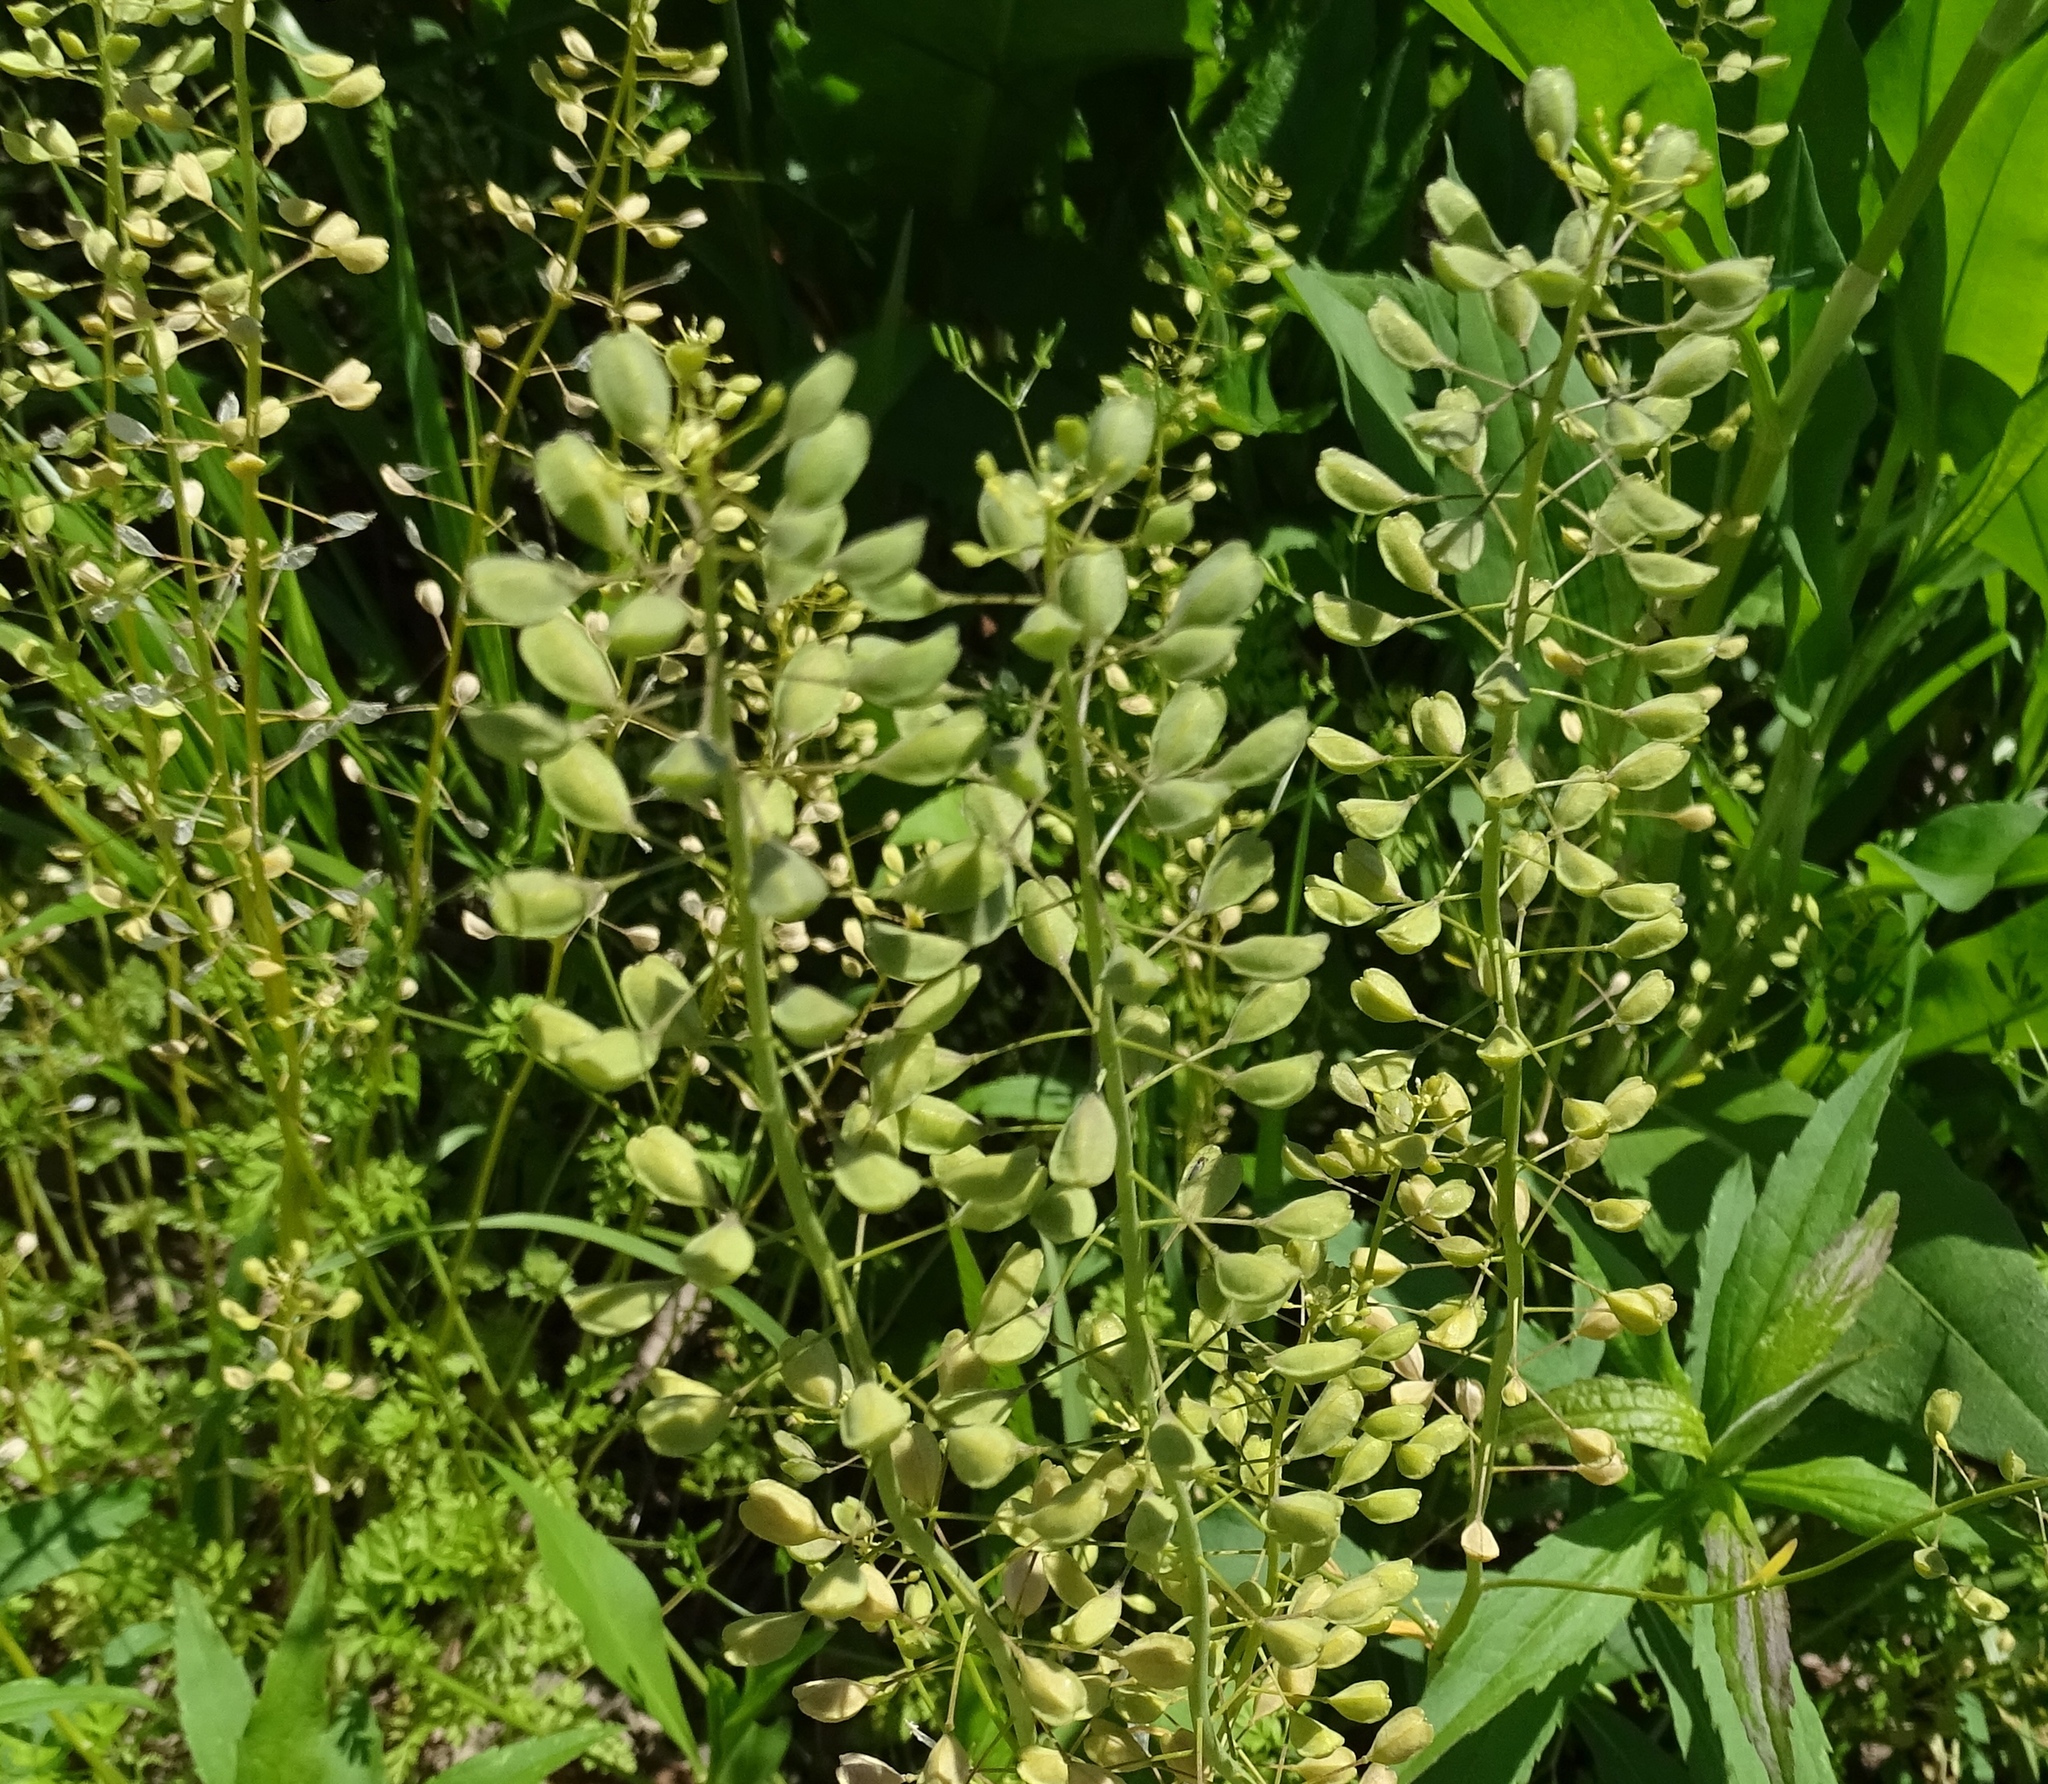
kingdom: Plantae
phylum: Tracheophyta
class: Magnoliopsida
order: Brassicales
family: Brassicaceae
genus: Mummenhoffia
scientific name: Mummenhoffia alliacea
